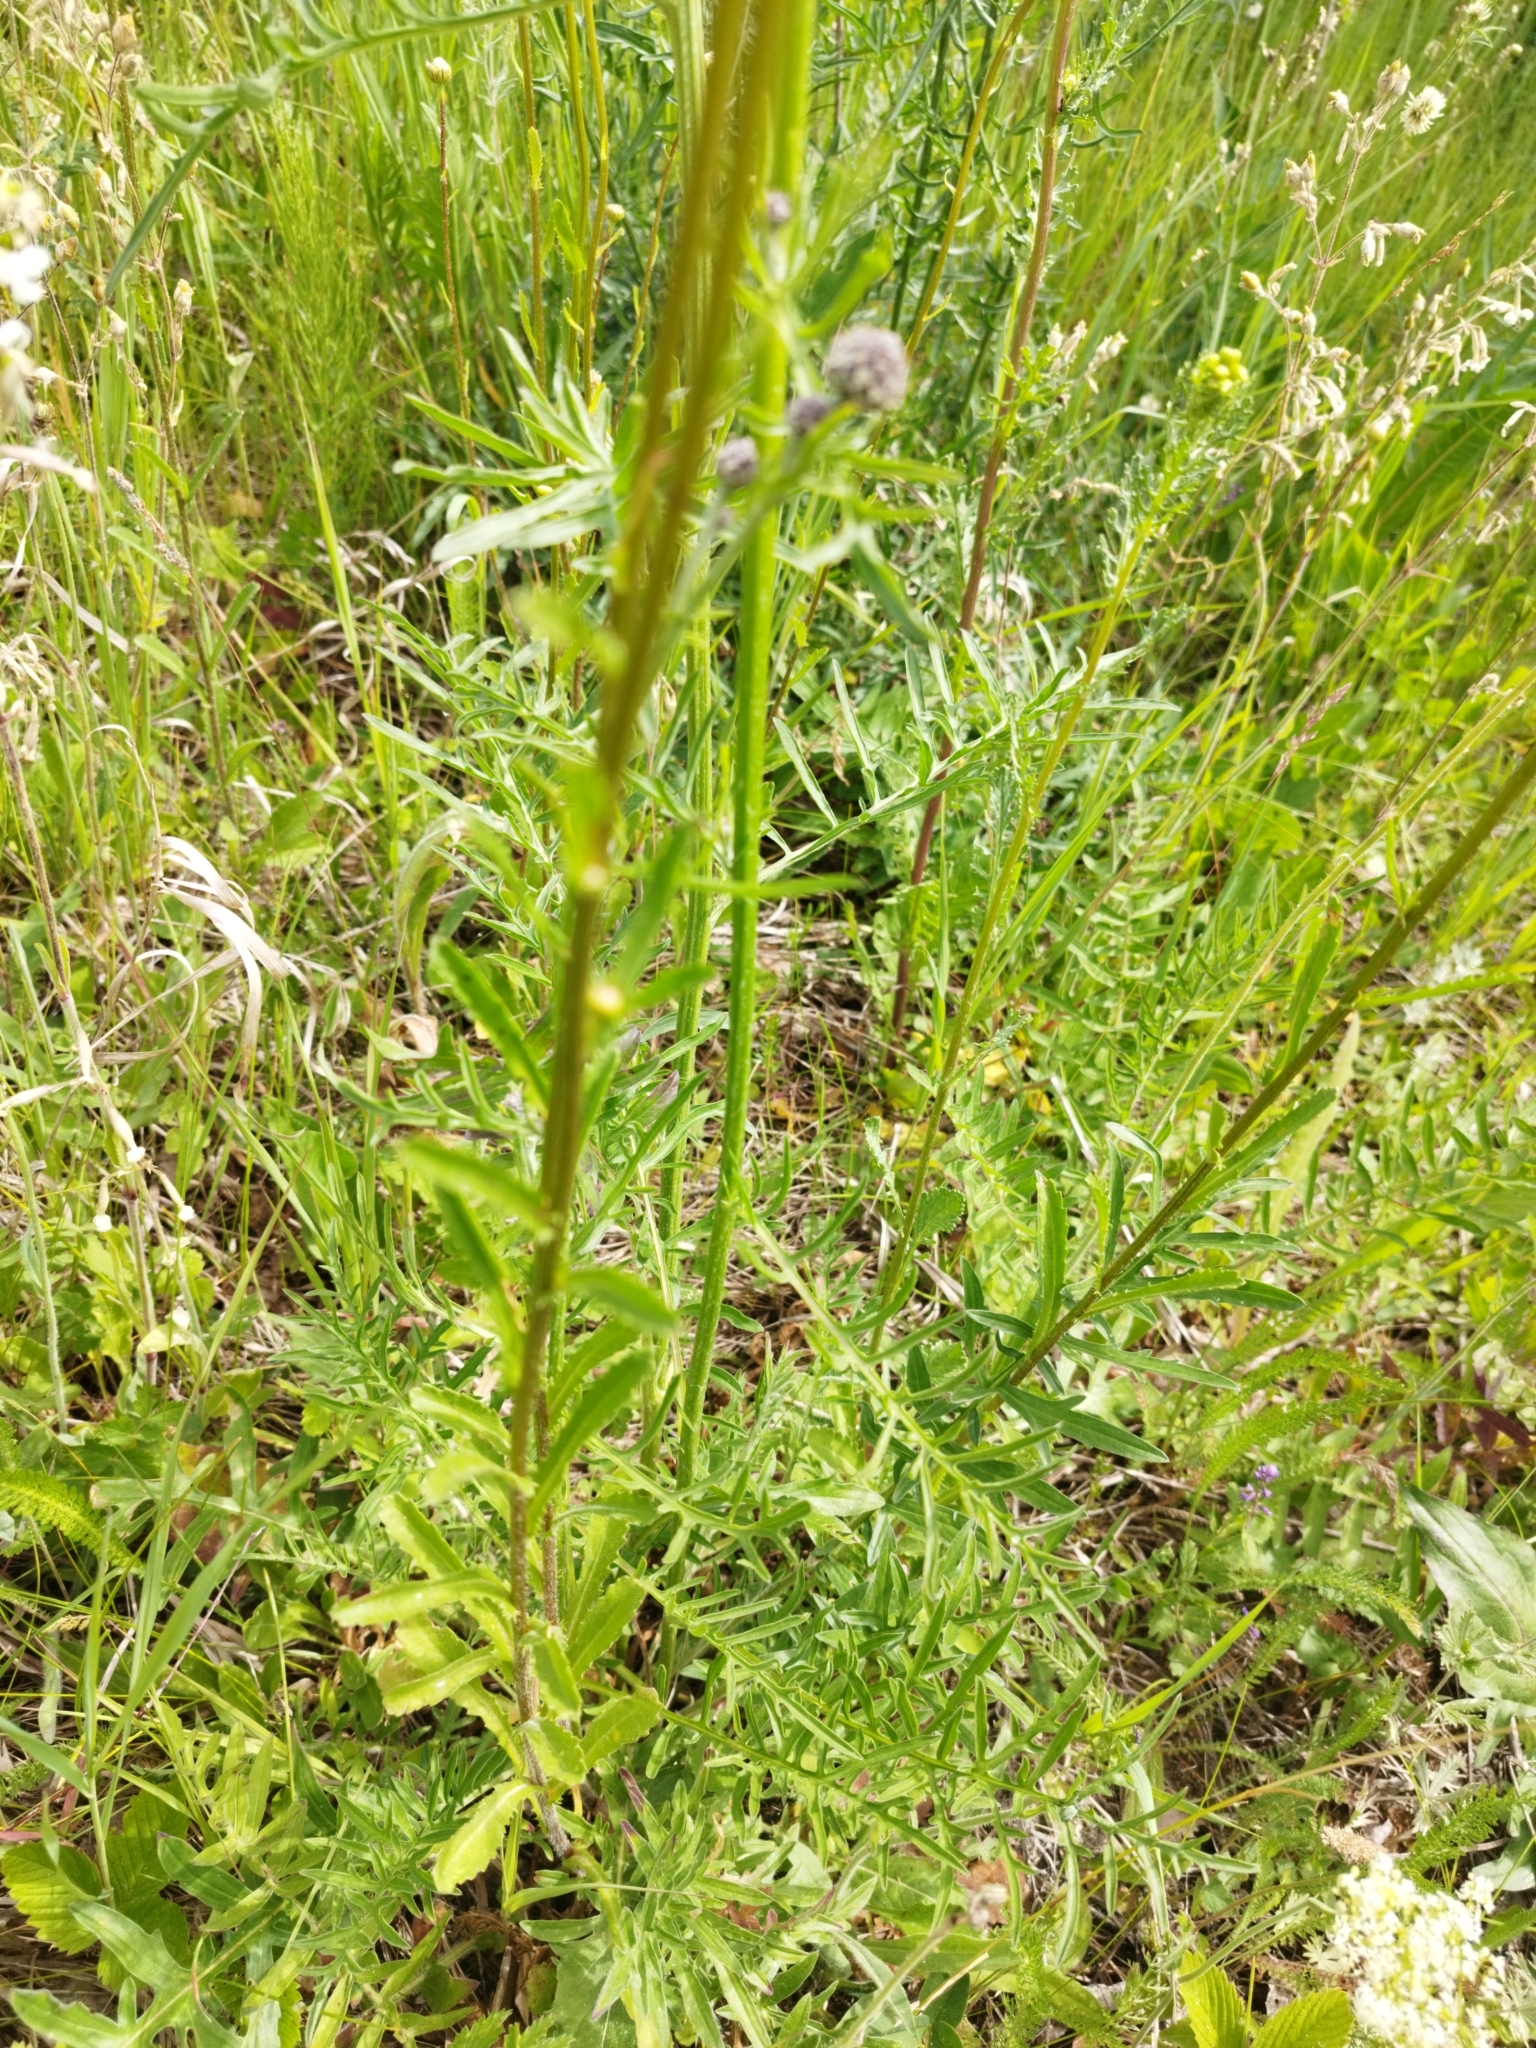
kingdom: Plantae
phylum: Tracheophyta
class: Magnoliopsida
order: Asterales
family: Asteraceae
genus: Leucanthemum
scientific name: Leucanthemum vulgare
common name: Oxeye daisy
